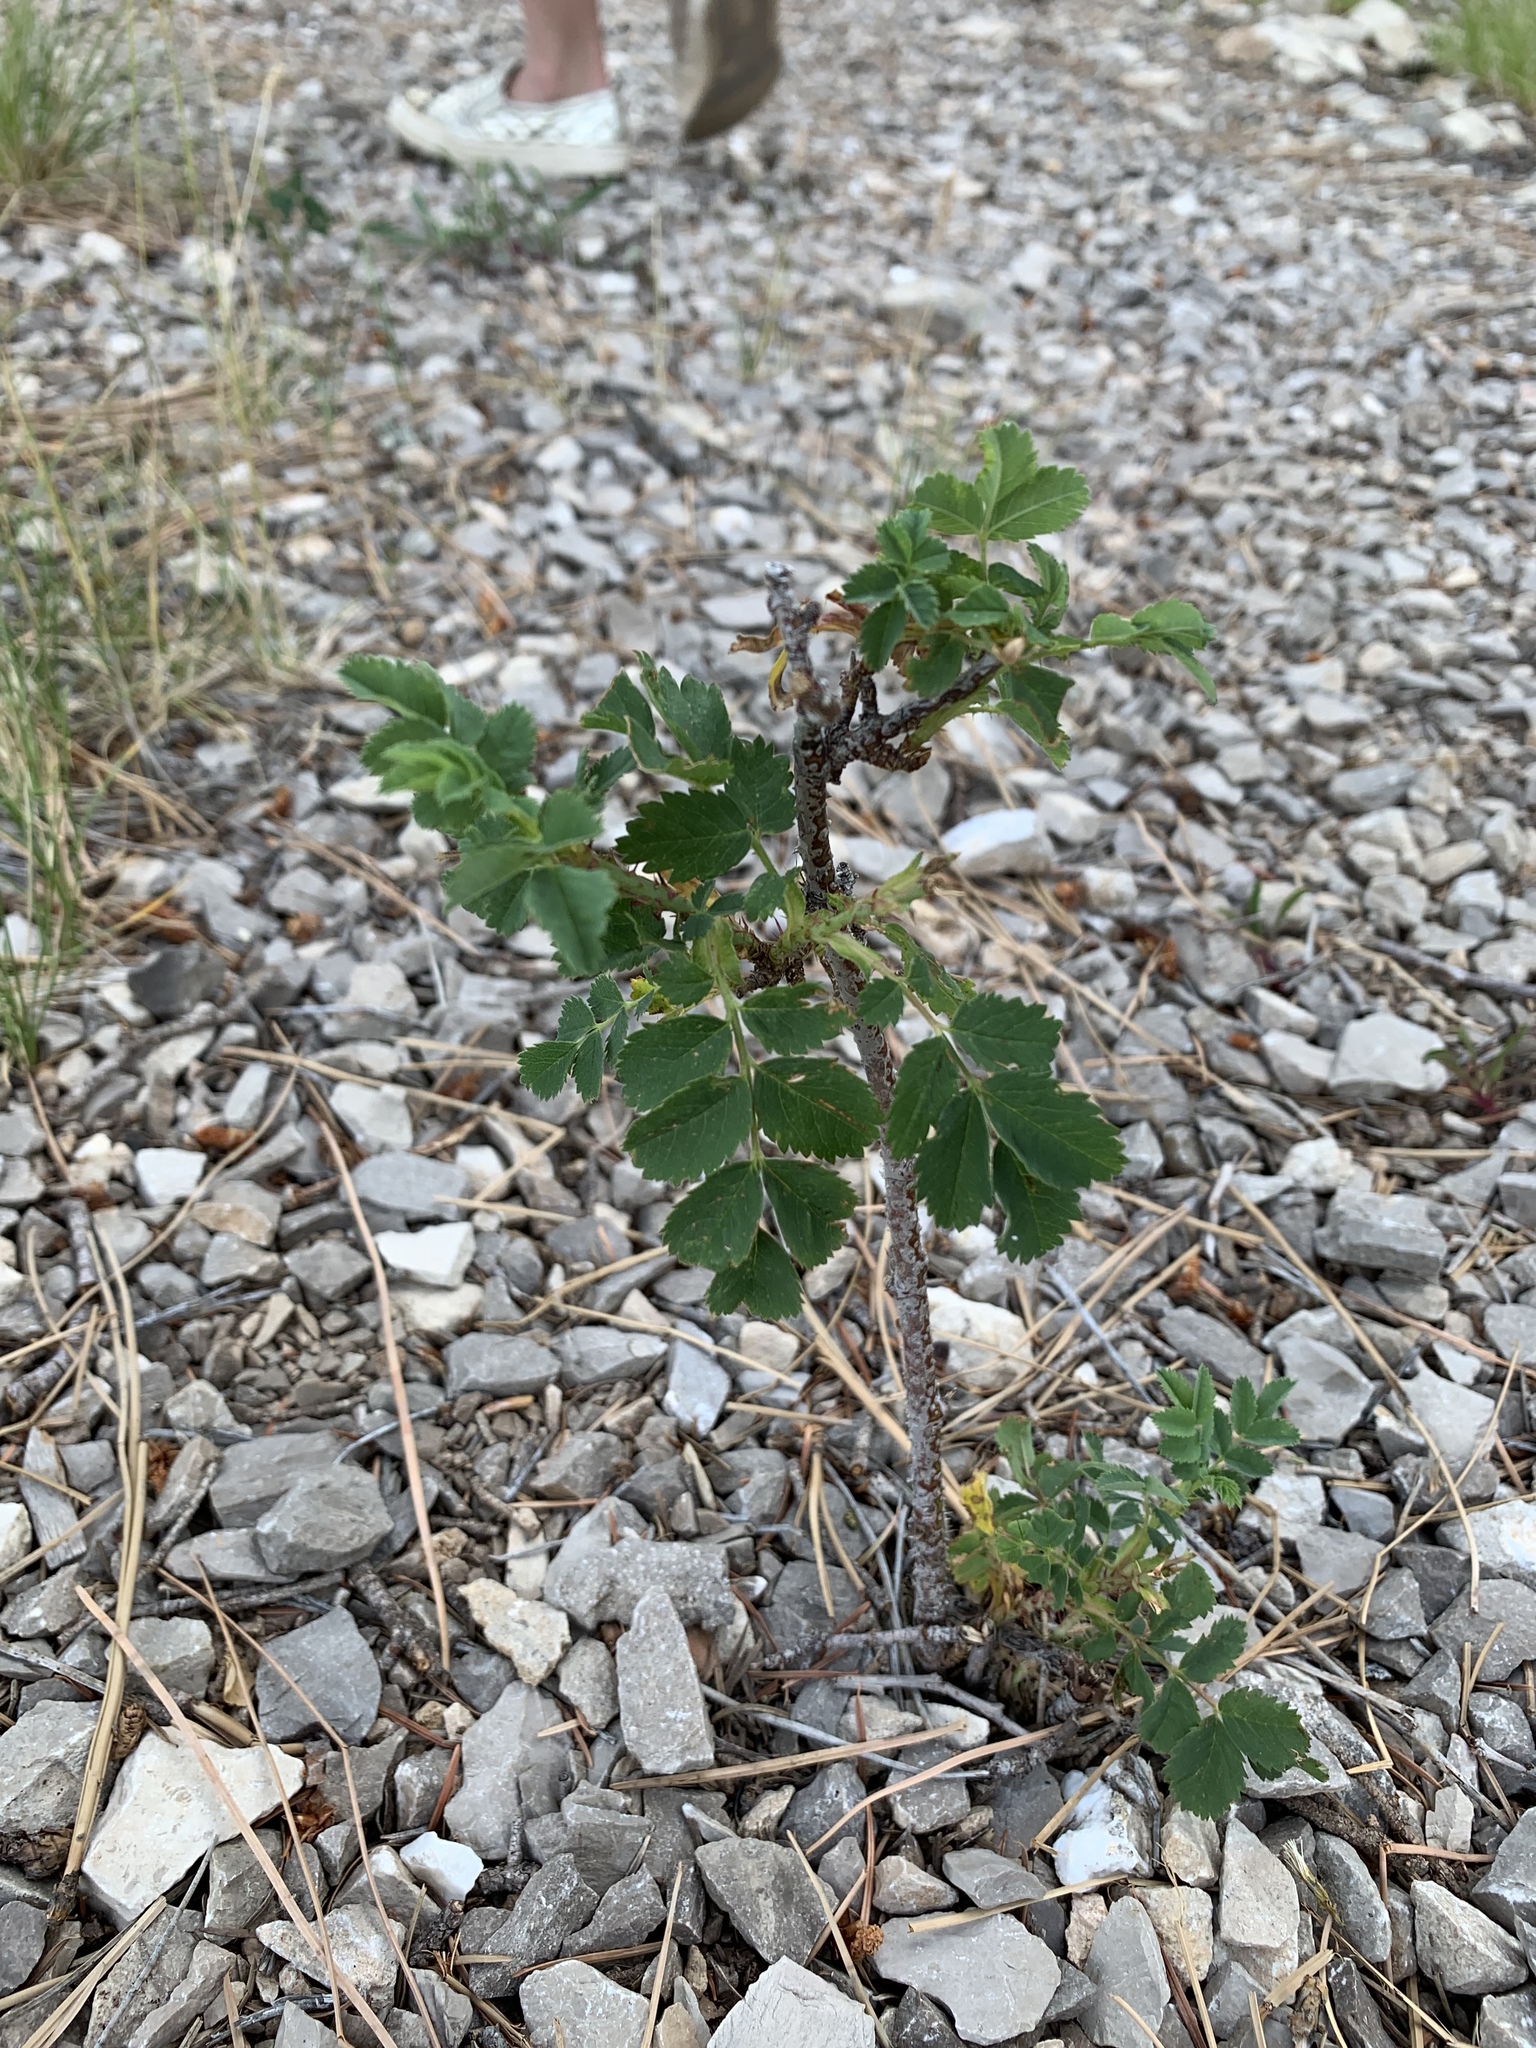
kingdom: Plantae
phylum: Tracheophyta
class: Magnoliopsida
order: Fabales
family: Fabaceae
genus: Robinia
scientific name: Robinia neomexicana
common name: New mexico locust
